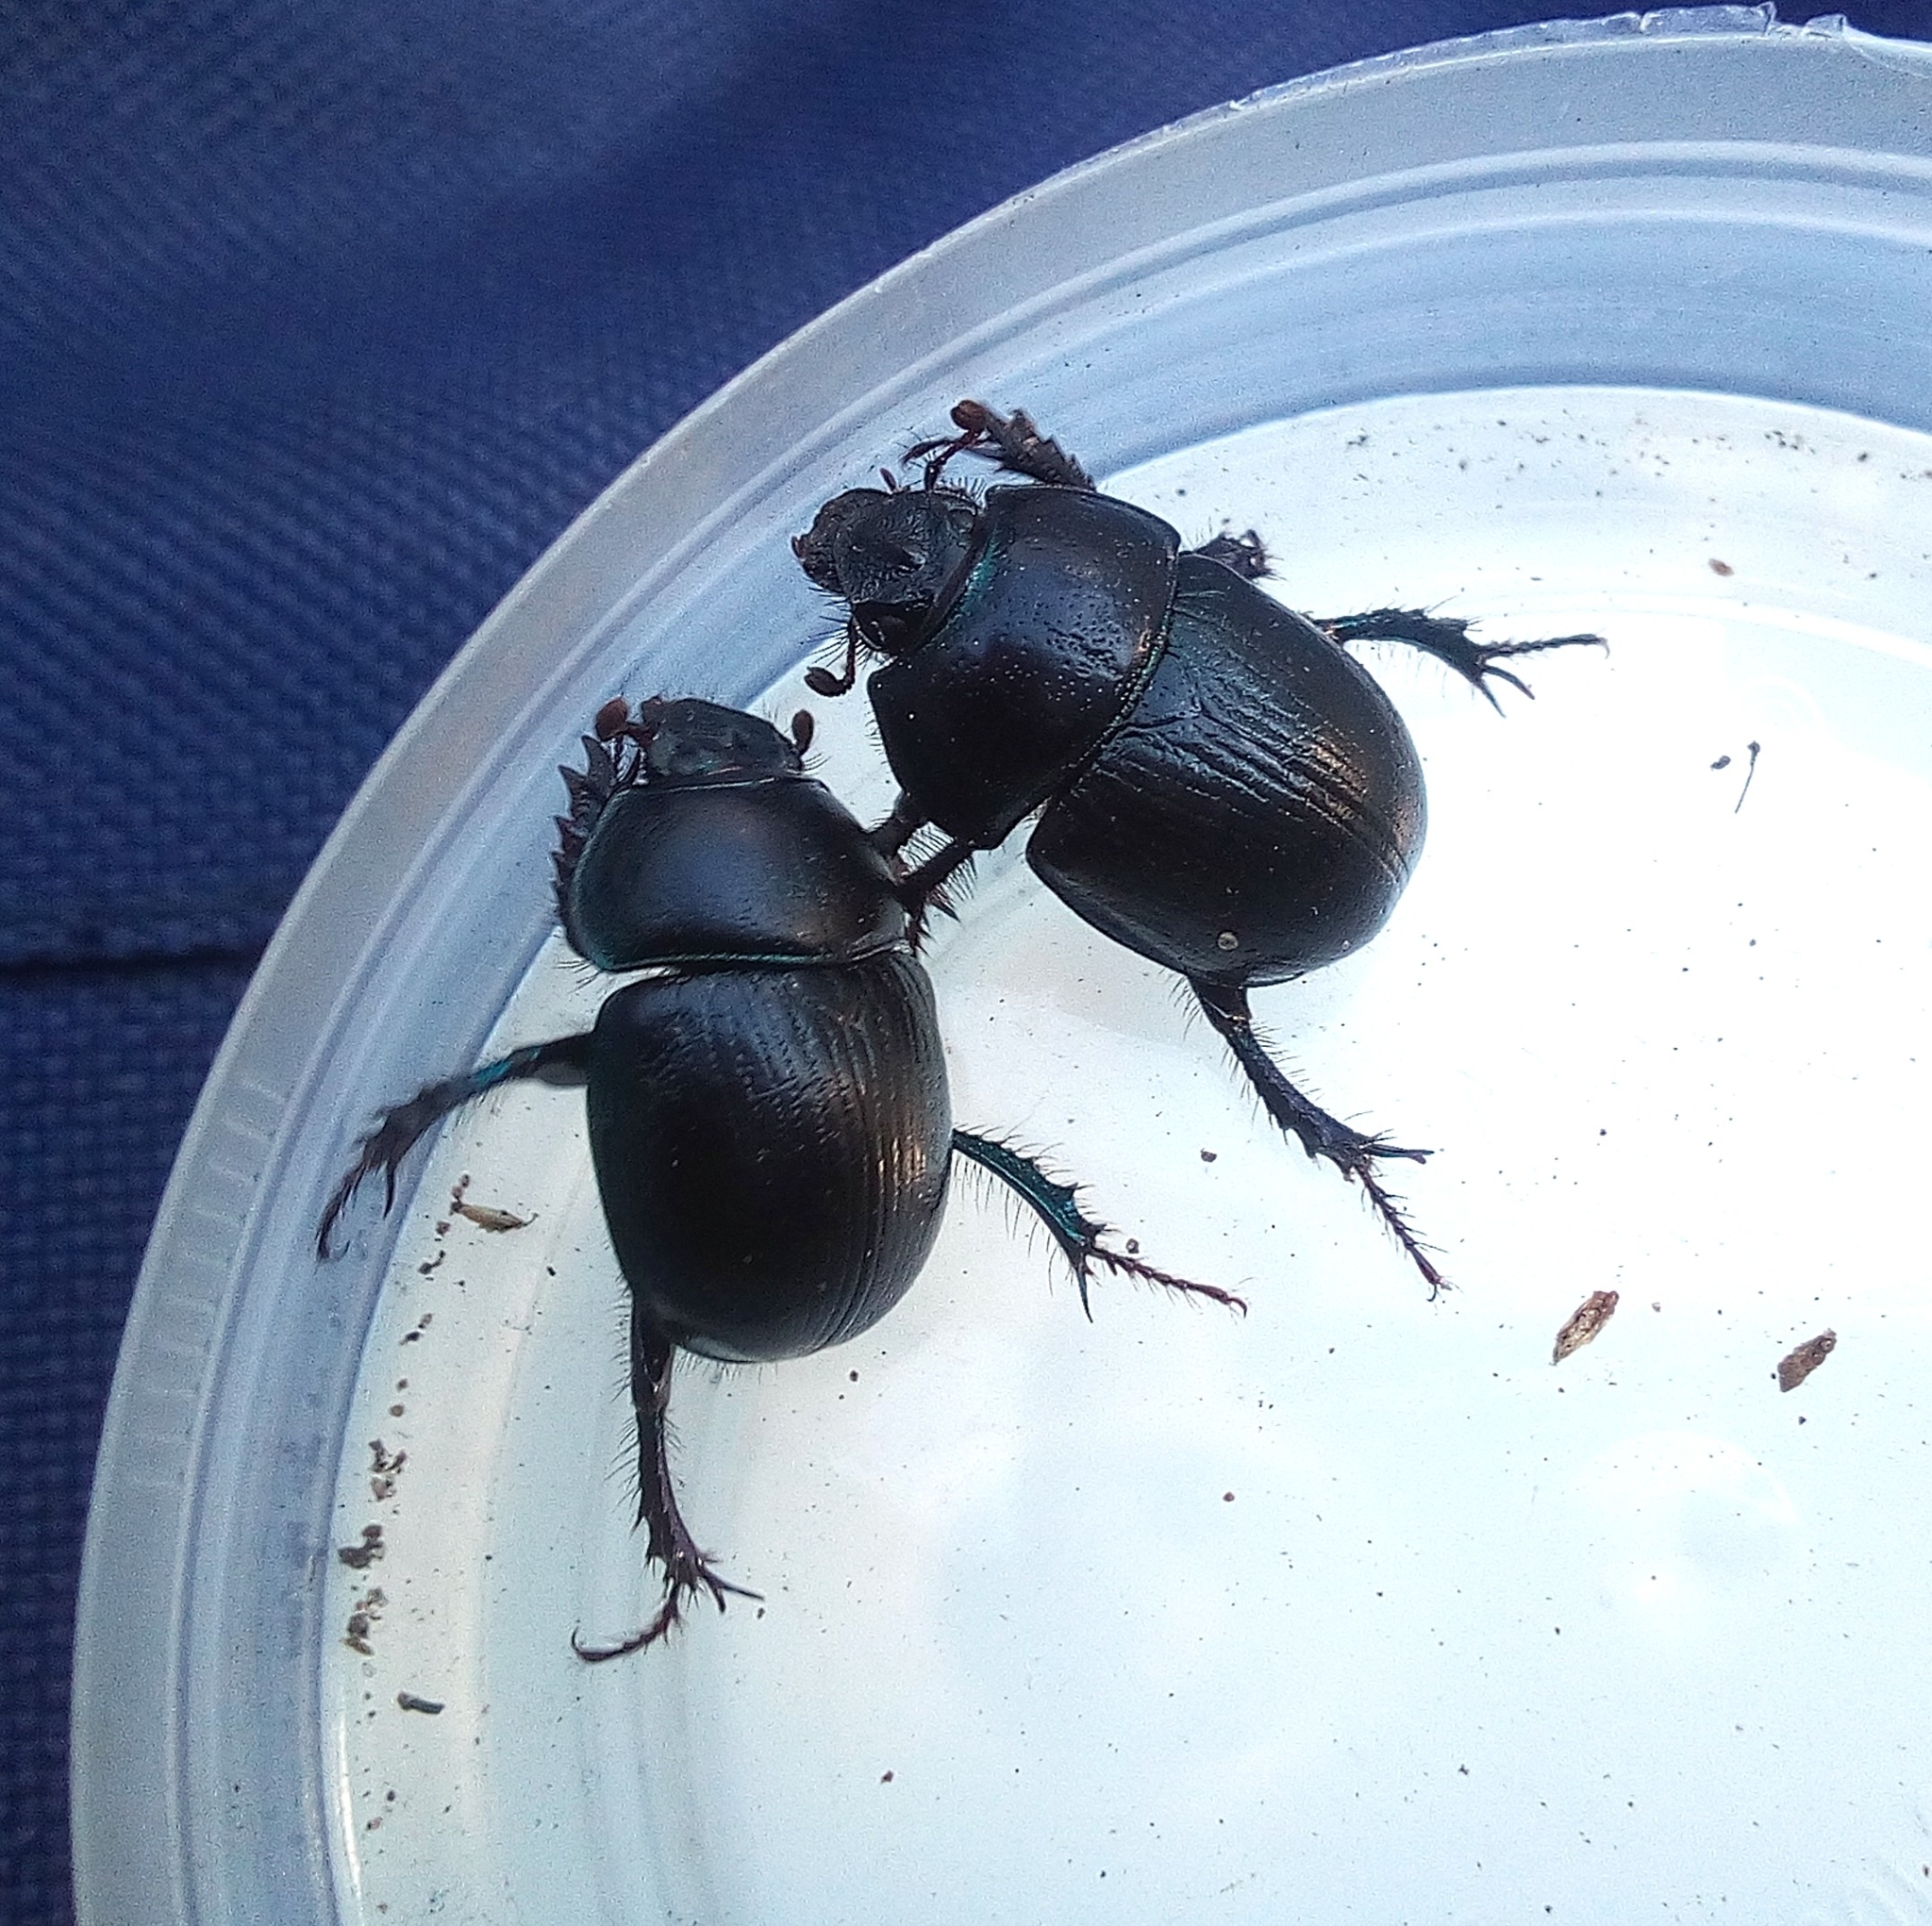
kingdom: Animalia
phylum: Arthropoda
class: Insecta
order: Coleoptera
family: Geotrupidae
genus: Anoplotrupes
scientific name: Anoplotrupes stercorosus
